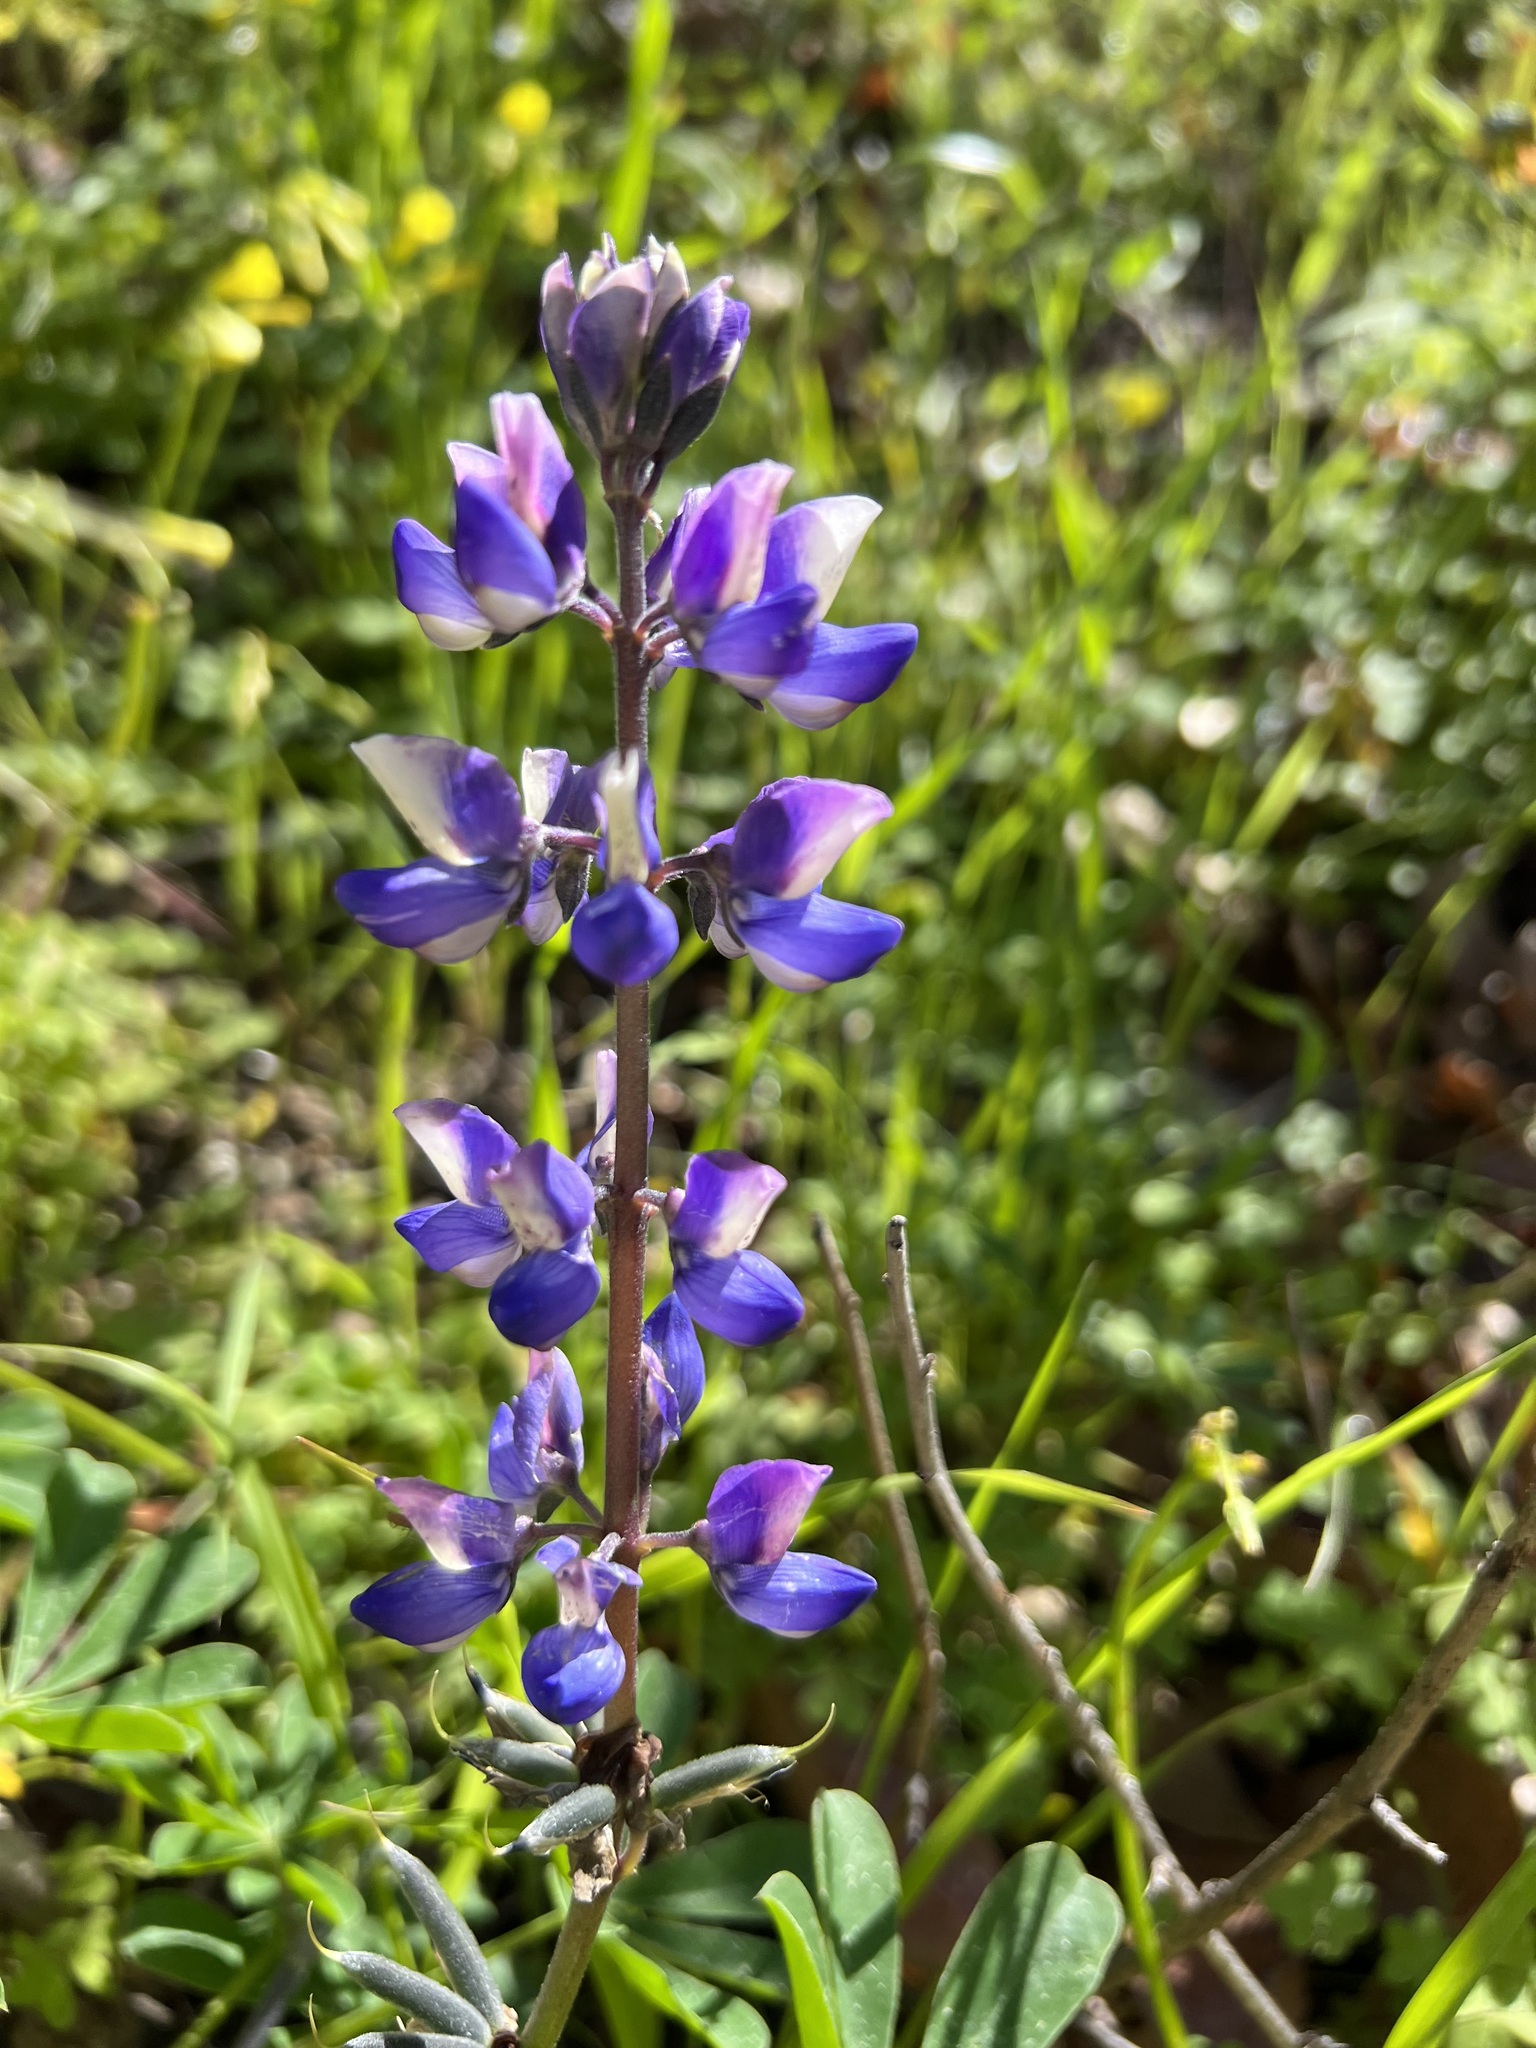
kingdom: Plantae
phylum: Tracheophyta
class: Magnoliopsida
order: Fabales
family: Fabaceae
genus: Lupinus
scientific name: Lupinus succulentus
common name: Arroyo lupine
